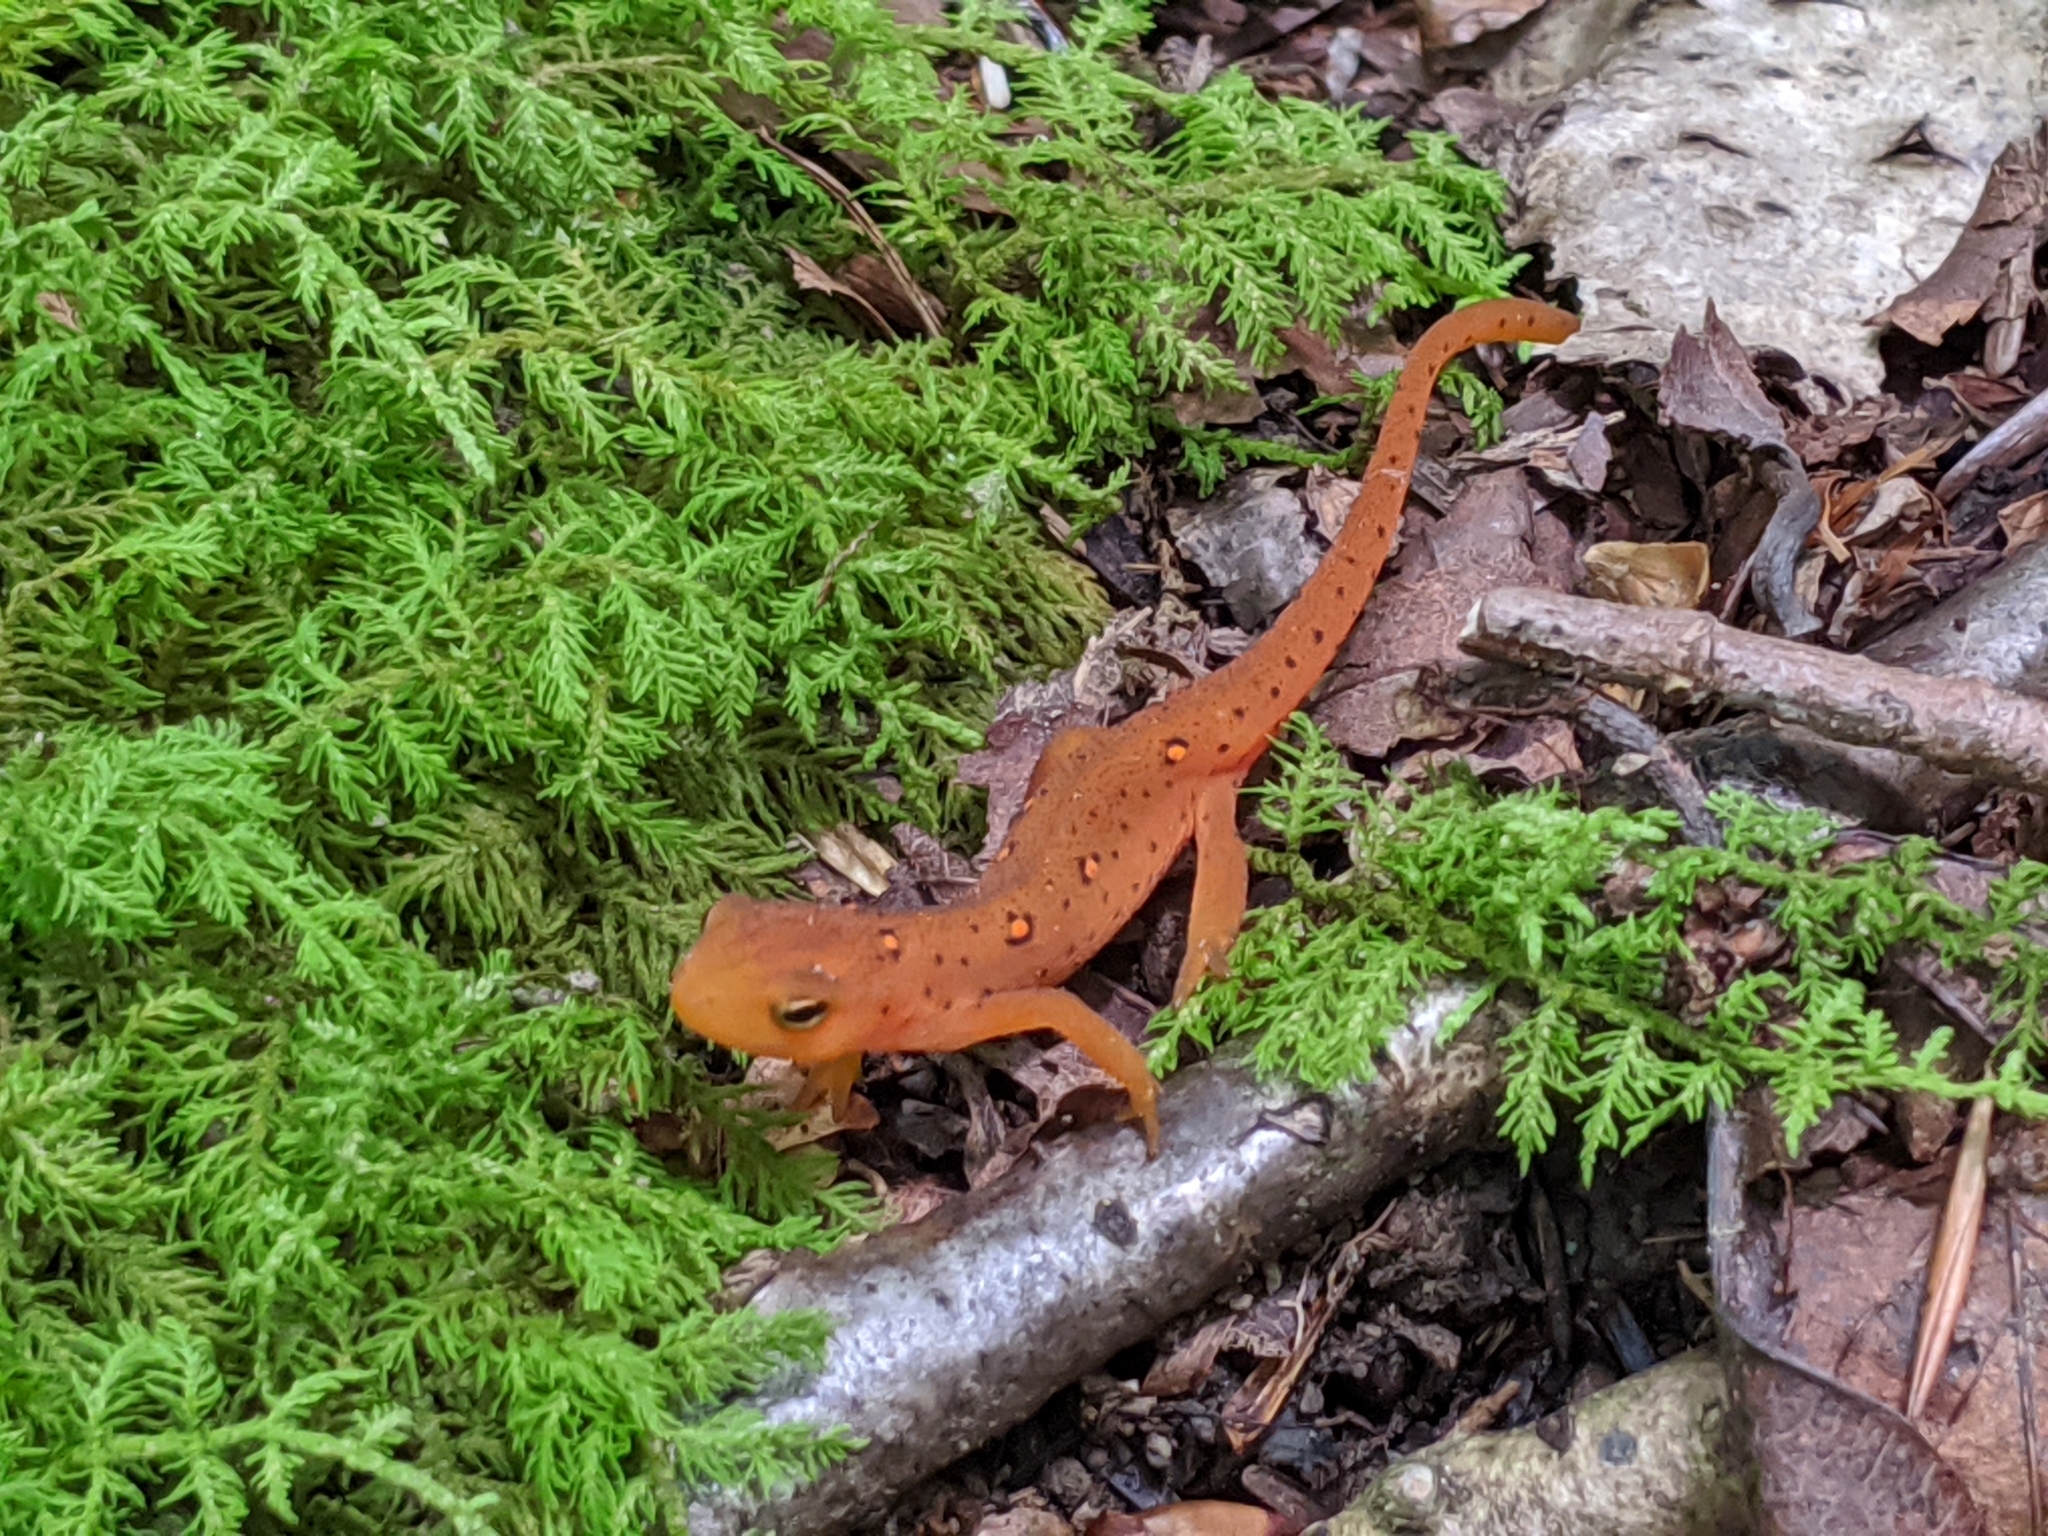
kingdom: Animalia
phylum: Chordata
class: Amphibia
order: Caudata
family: Salamandridae
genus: Notophthalmus
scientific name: Notophthalmus viridescens
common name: Eastern newt
